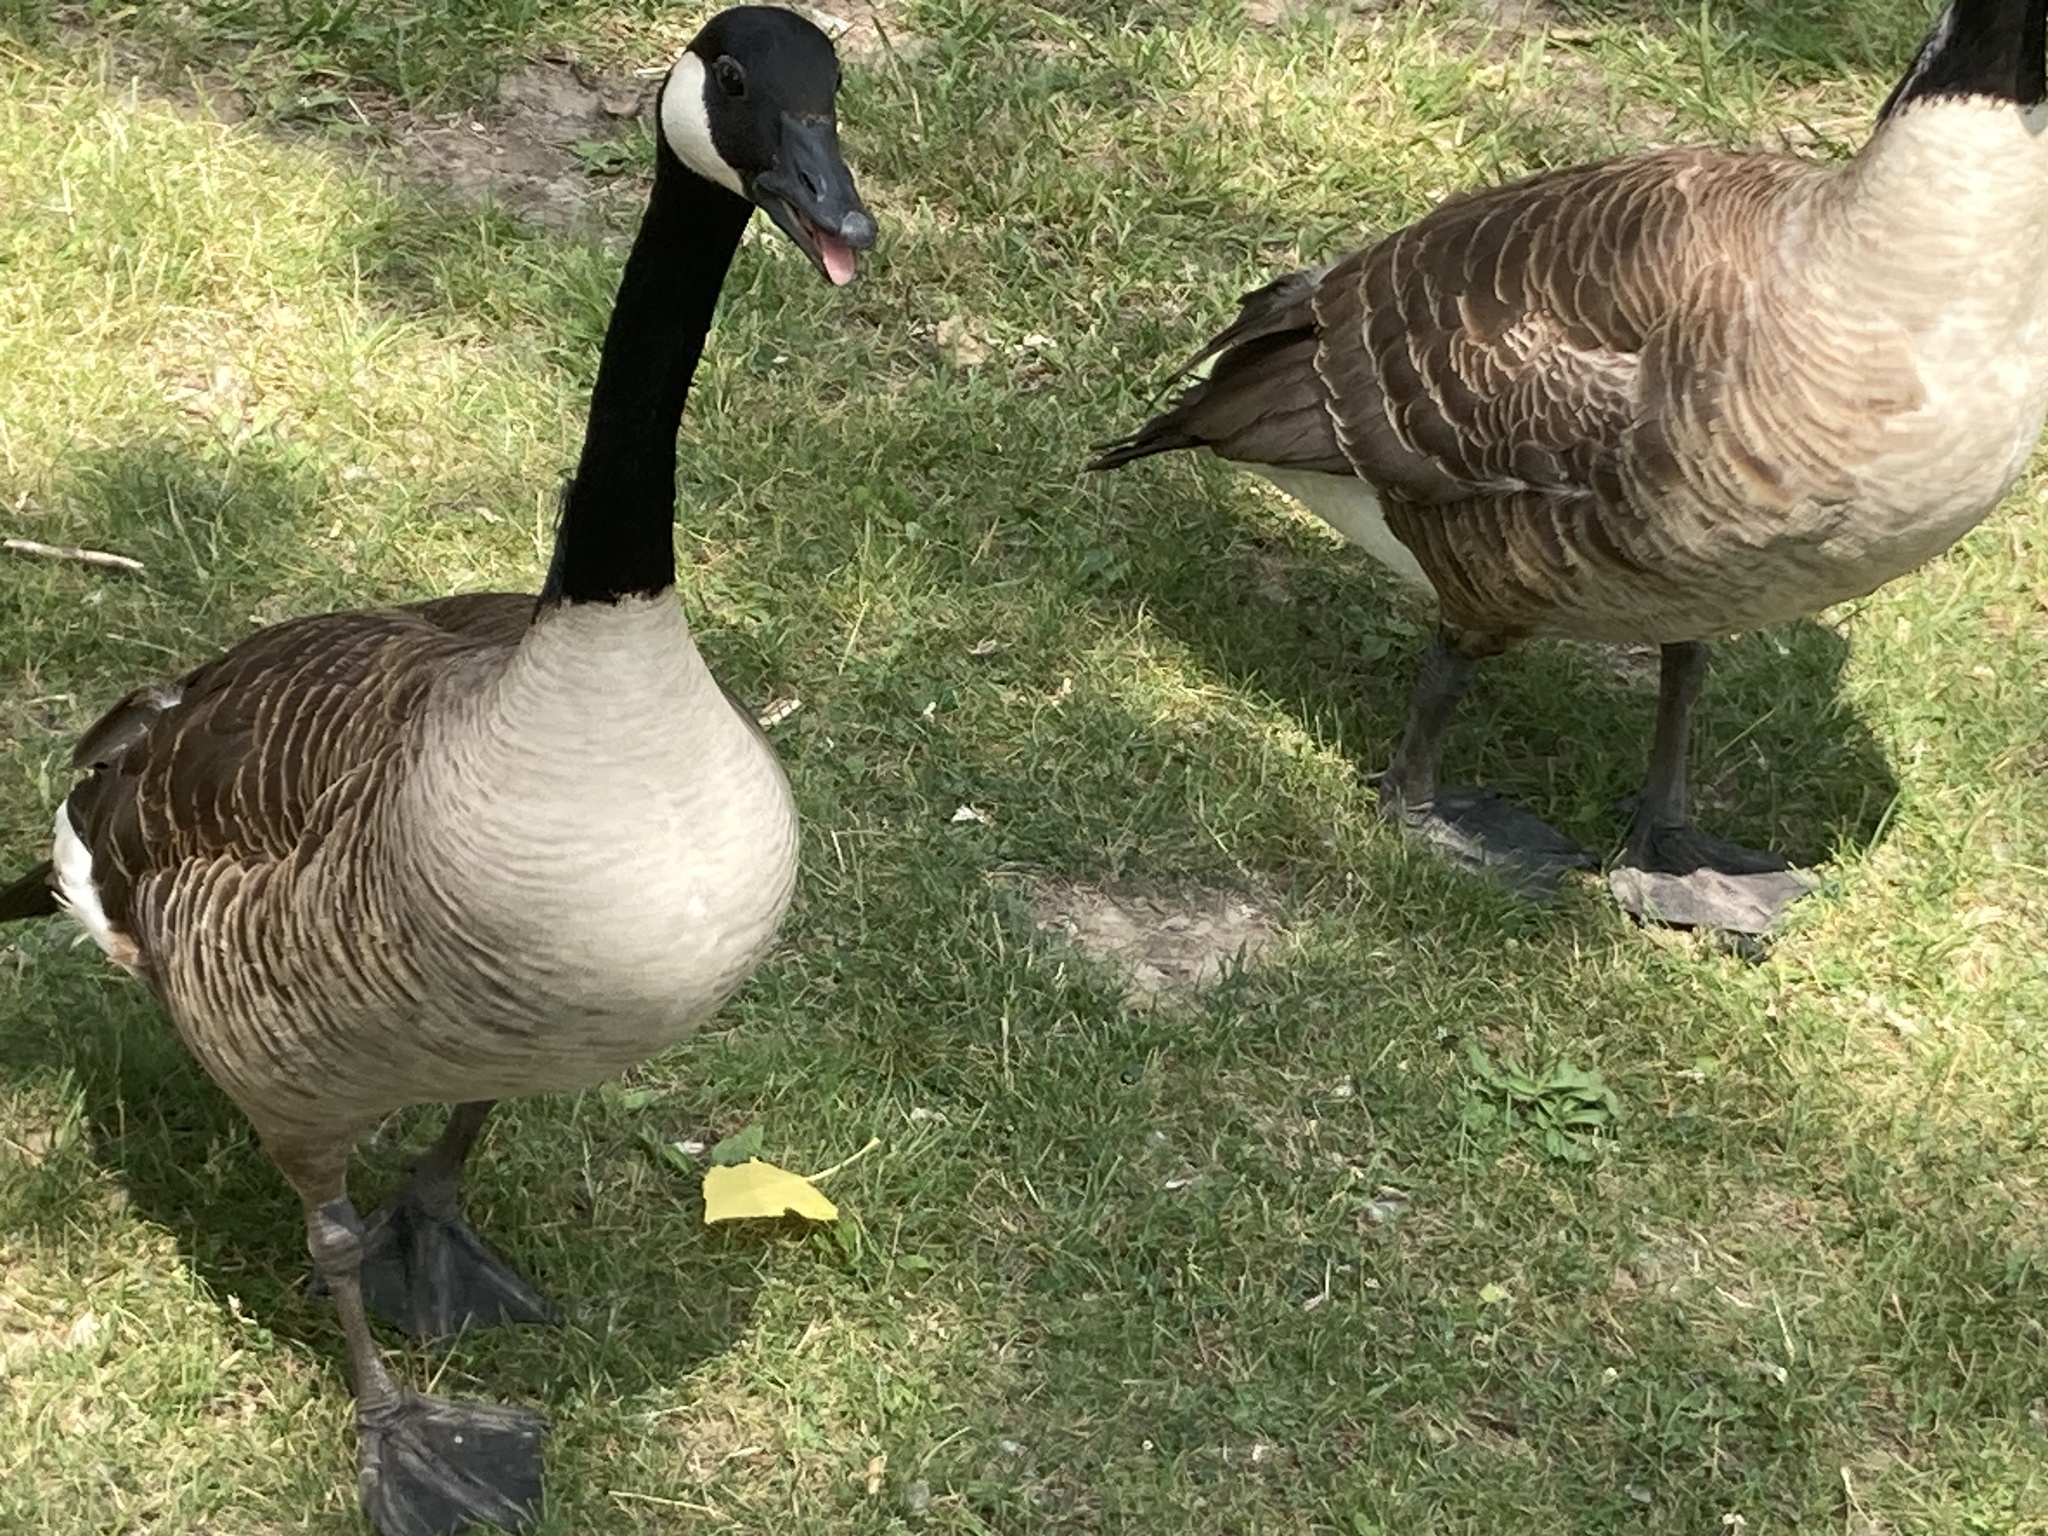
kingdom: Animalia
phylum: Chordata
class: Aves
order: Anseriformes
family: Anatidae
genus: Branta
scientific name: Branta canadensis
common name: Canada goose
